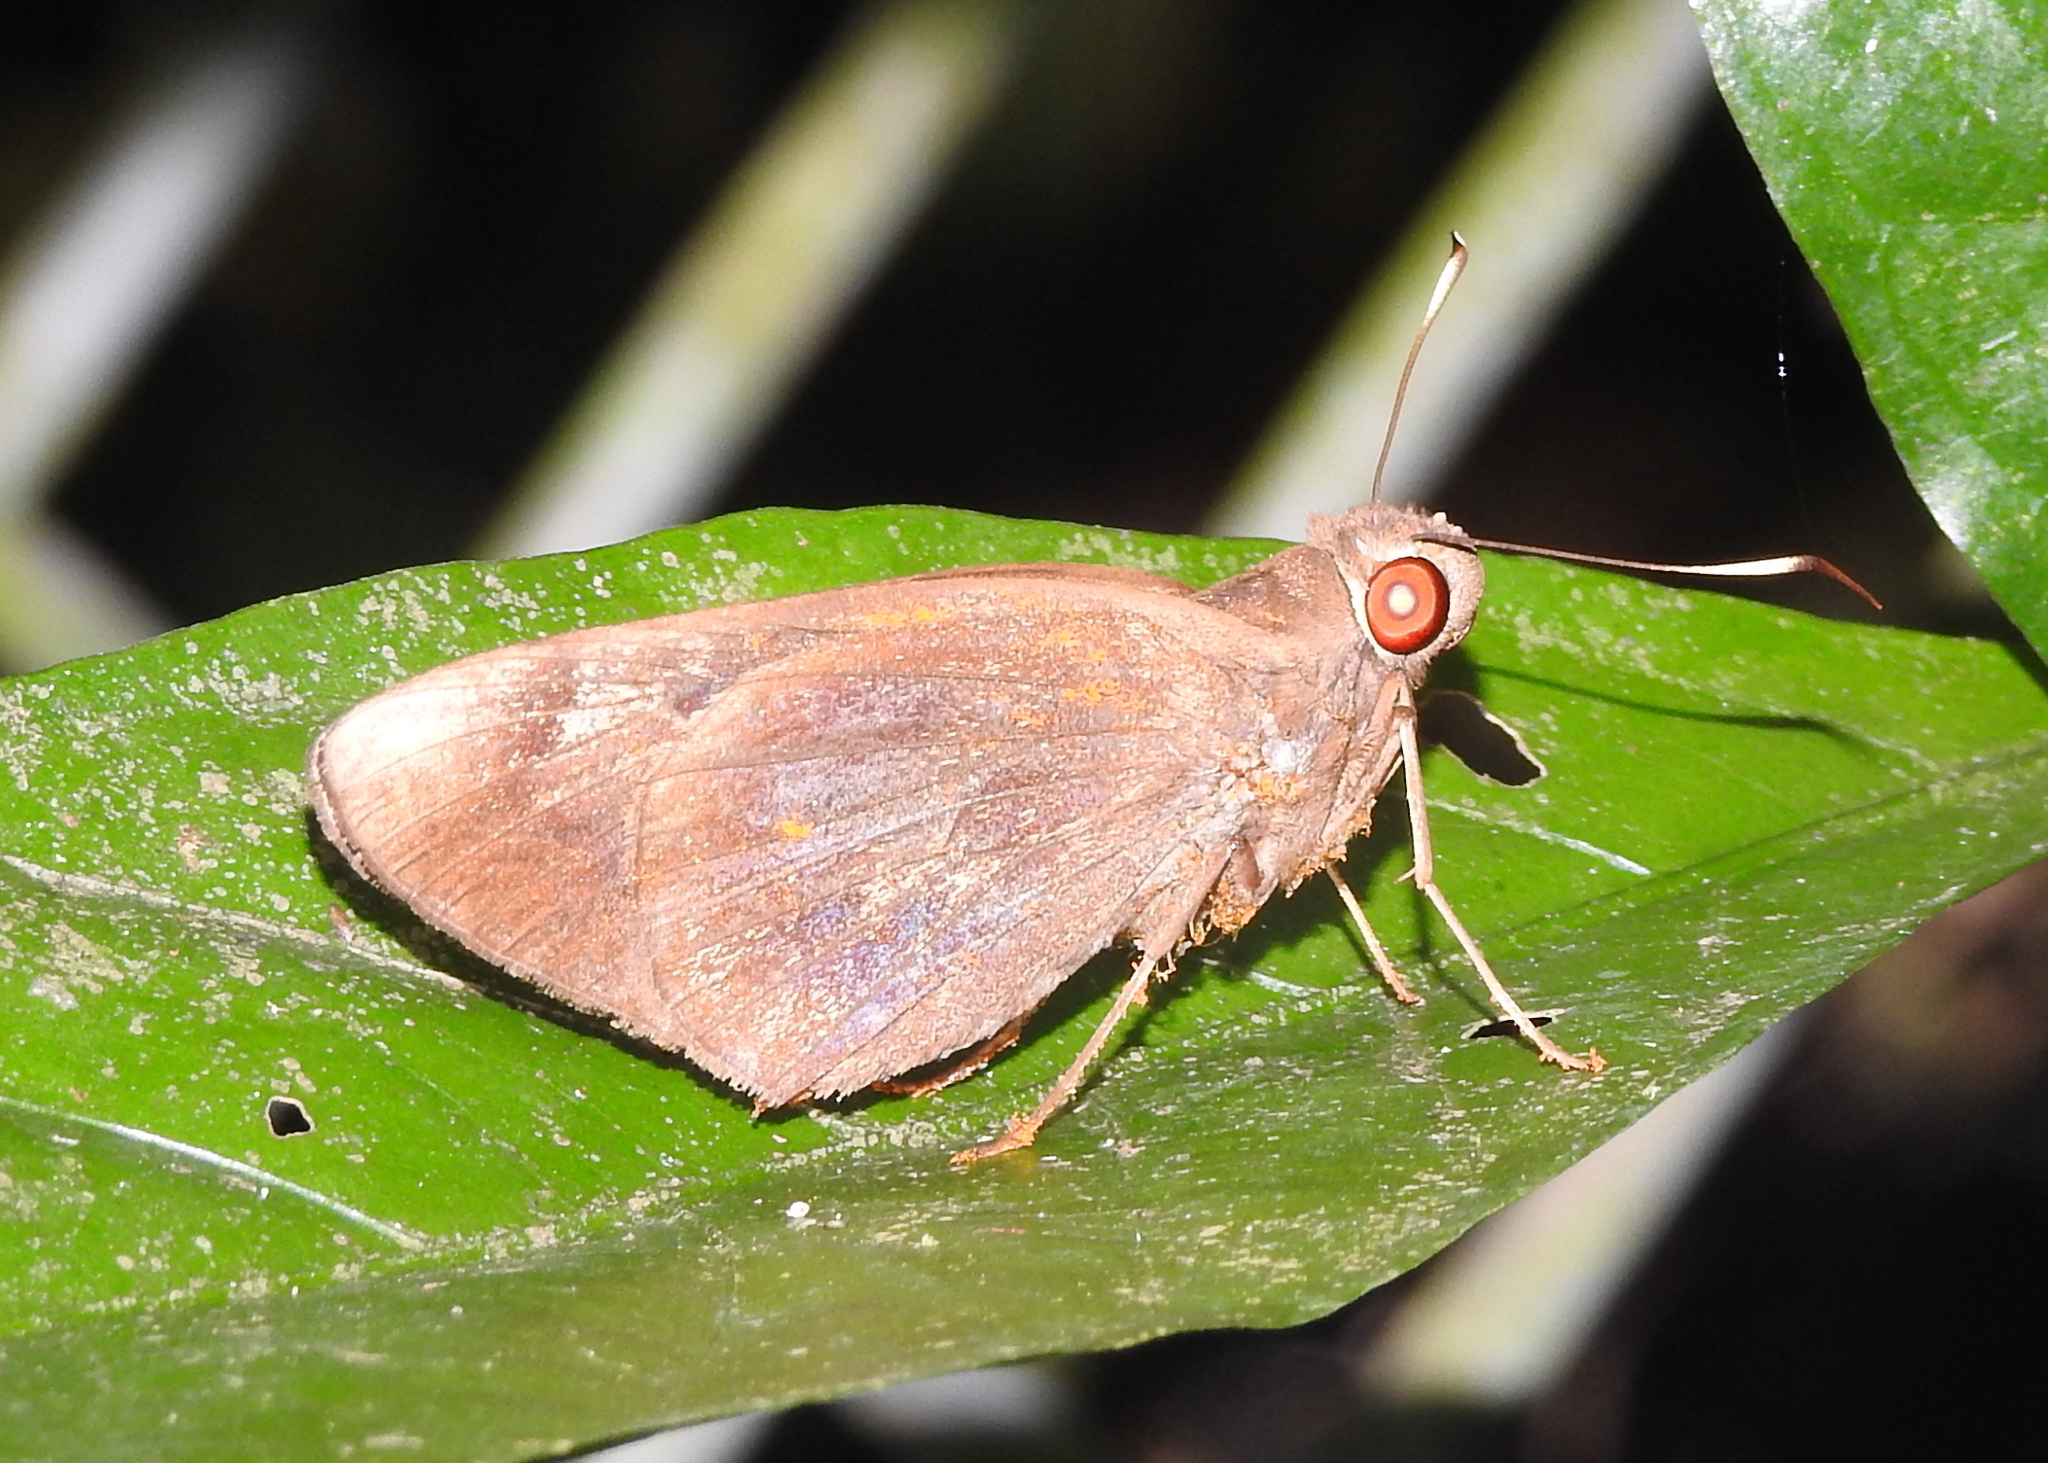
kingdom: Animalia
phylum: Arthropoda
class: Insecta
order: Lepidoptera
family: Hesperiidae
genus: Erionota
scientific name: Erionota acroleucus
